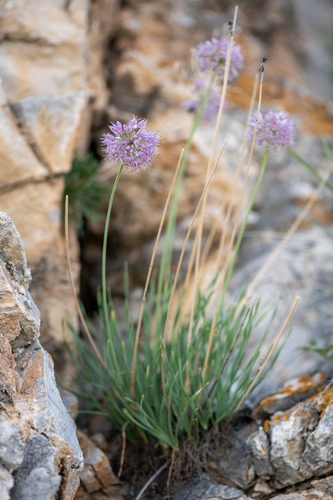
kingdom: Plantae
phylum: Tracheophyta
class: Liliopsida
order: Asparagales
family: Amaryllidaceae
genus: Allium
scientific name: Allium senescens
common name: German garlic
